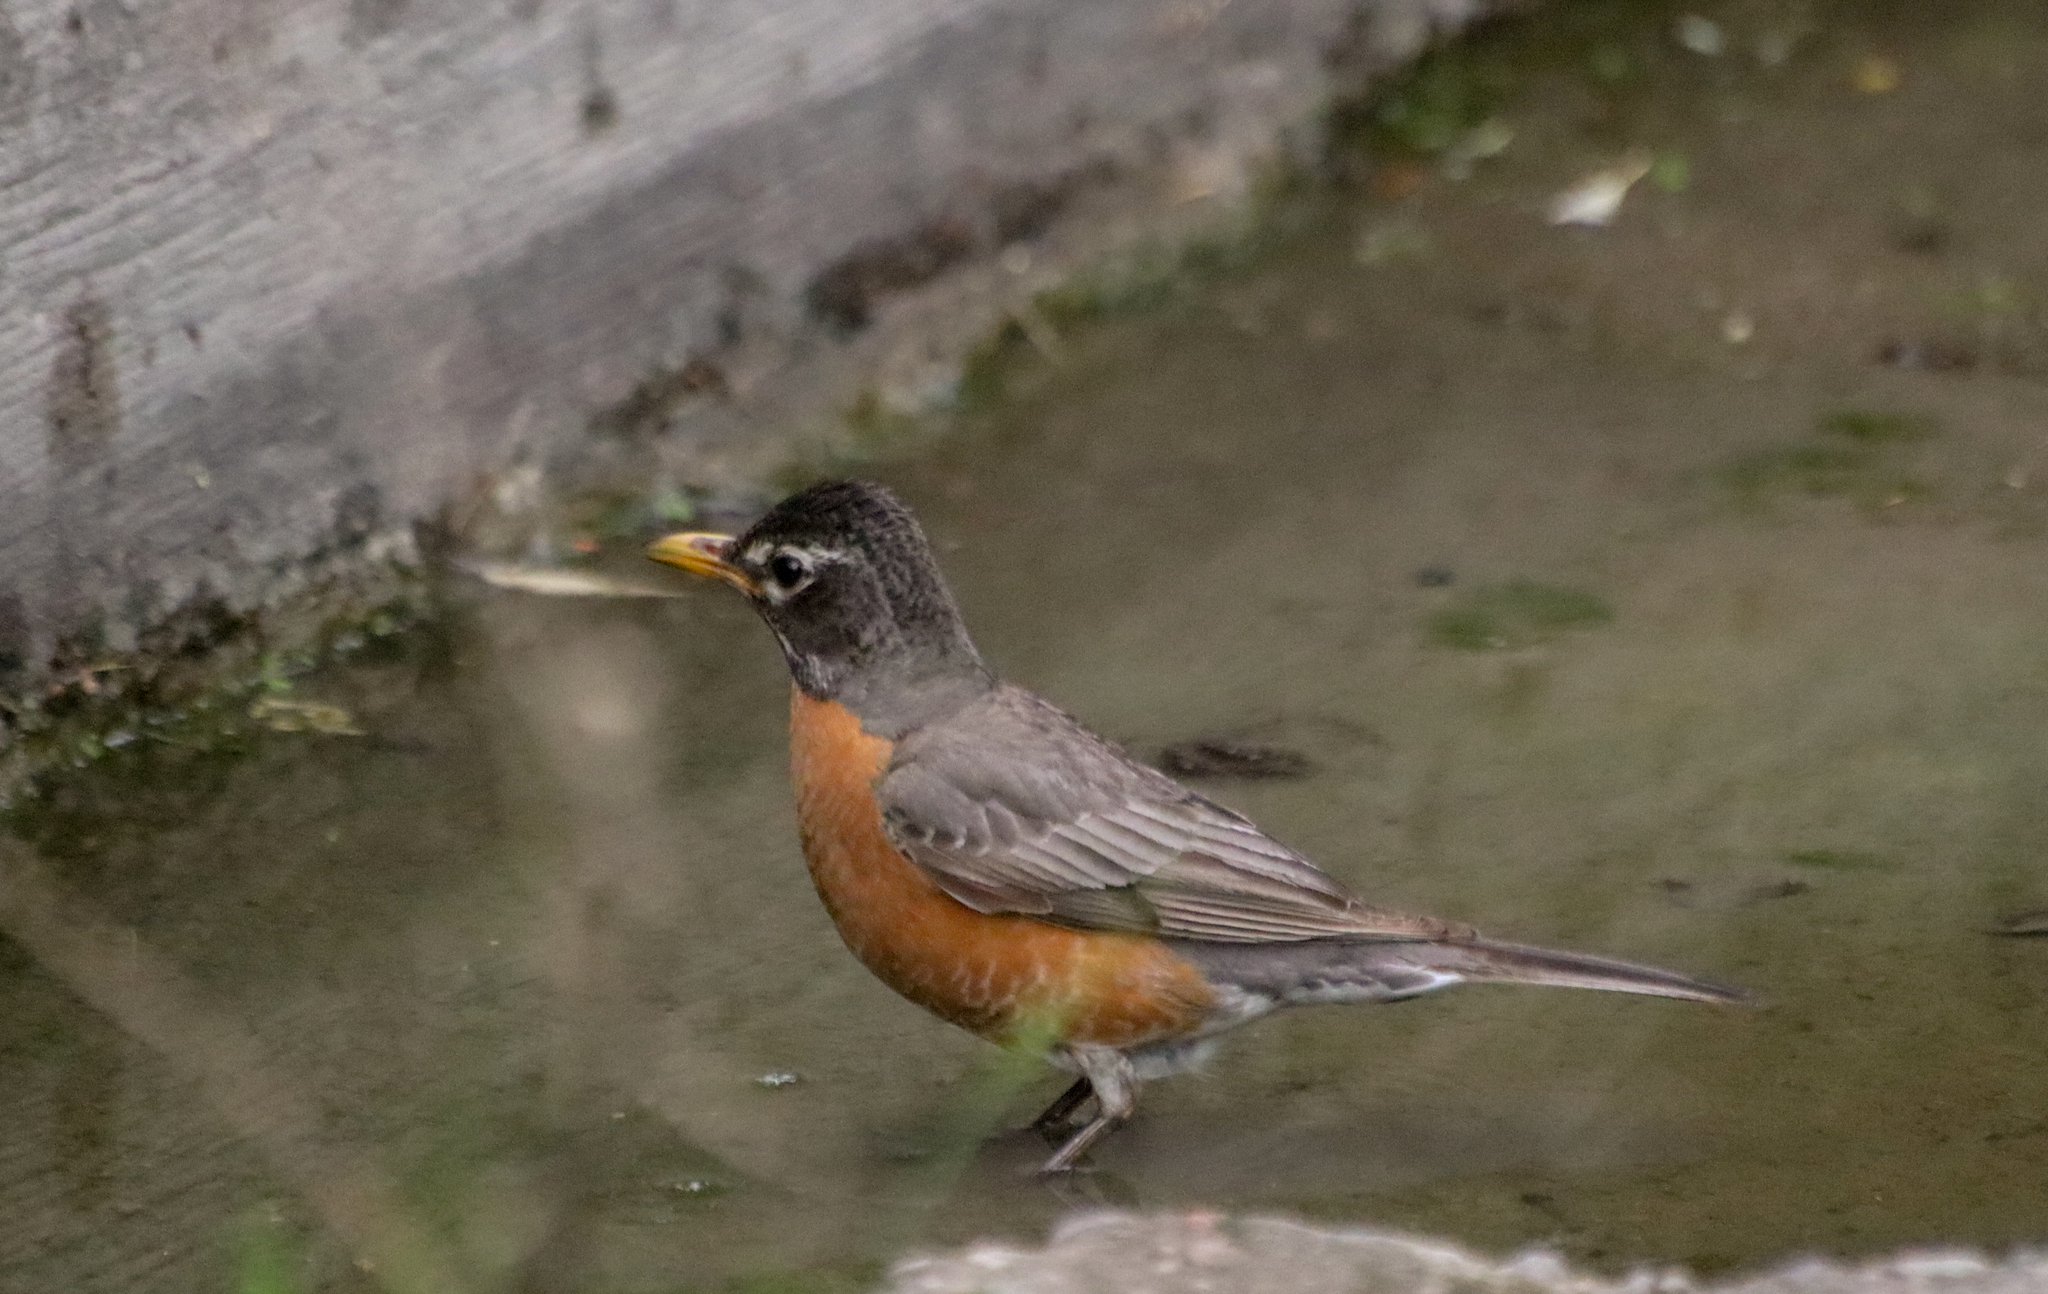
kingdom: Animalia
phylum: Chordata
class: Aves
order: Passeriformes
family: Turdidae
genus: Turdus
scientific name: Turdus migratorius
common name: American robin
